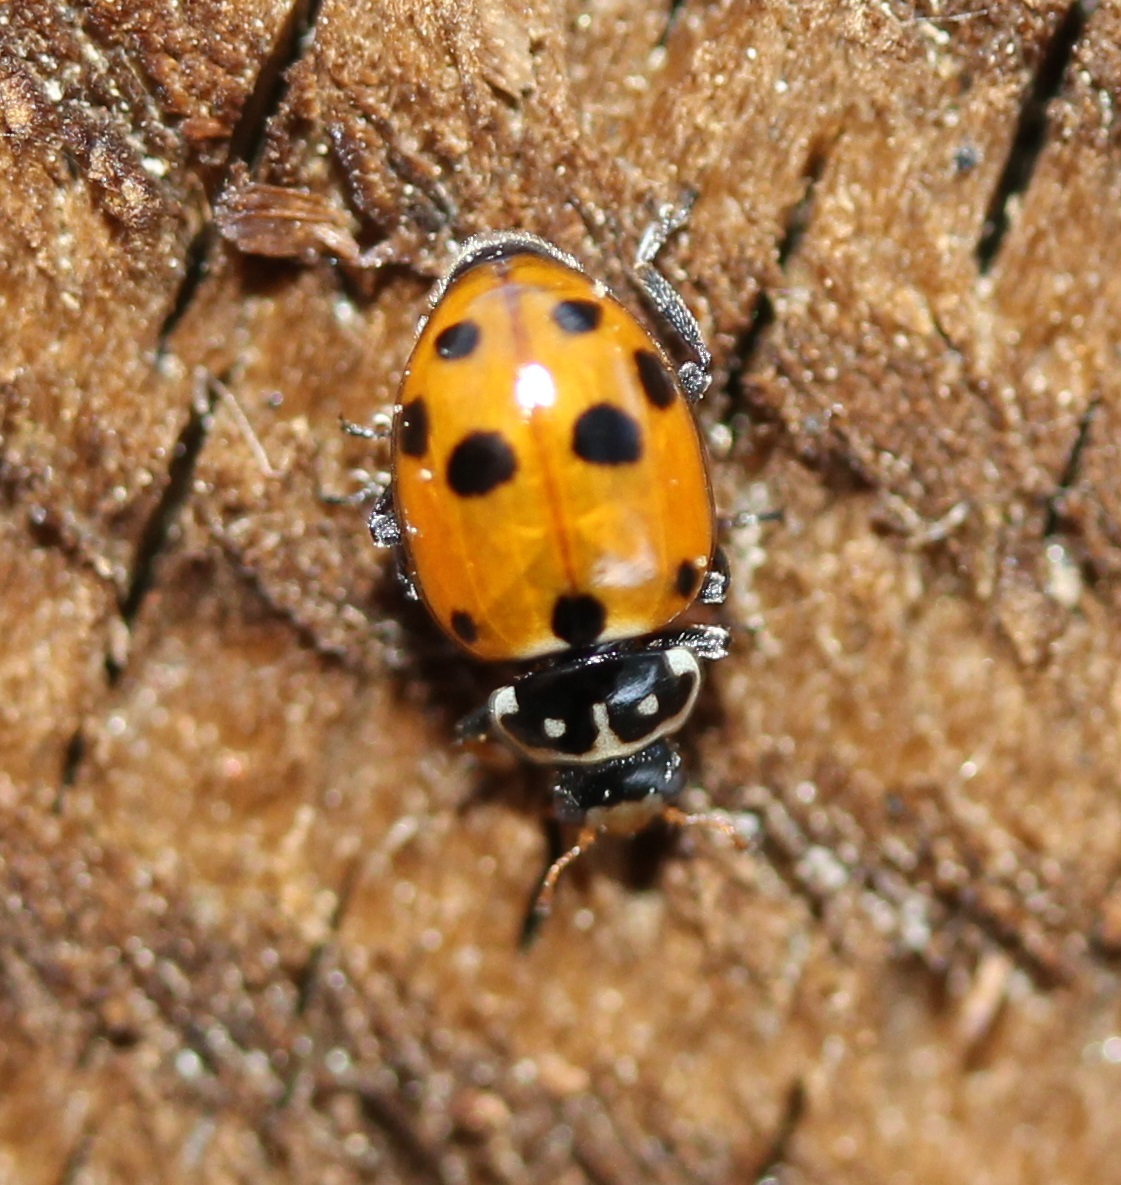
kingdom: Animalia
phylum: Arthropoda
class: Insecta
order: Coleoptera
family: Coccinellidae
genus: Hippodamia
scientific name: Hippodamia variegata
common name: Ladybird beetle
